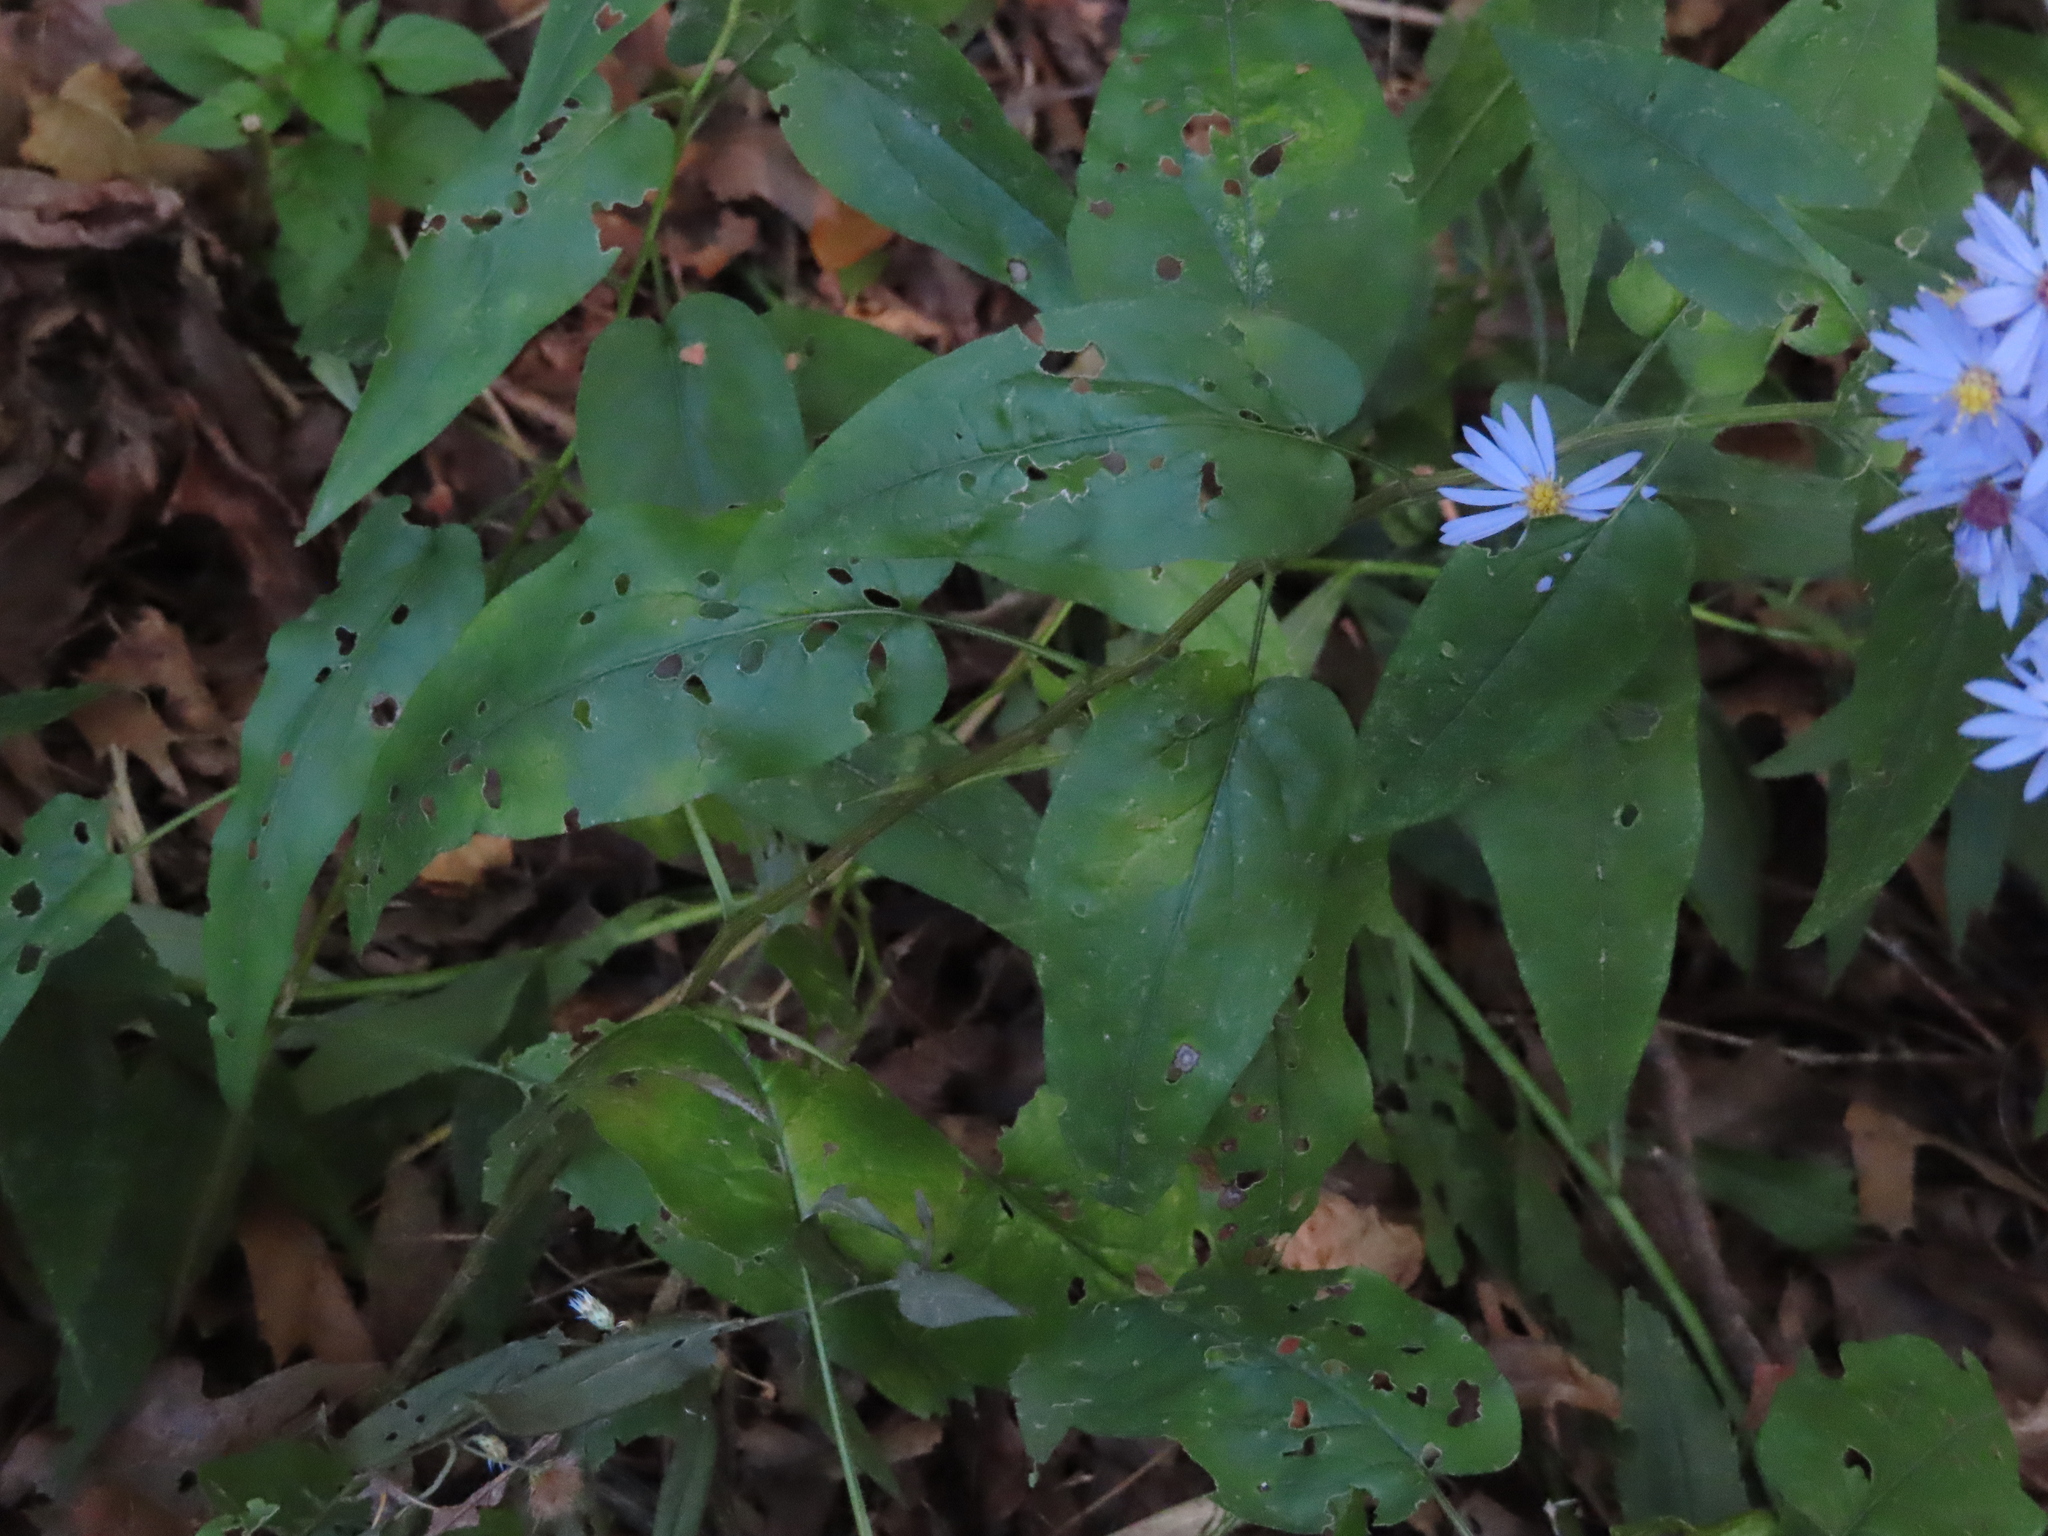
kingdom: Plantae
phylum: Tracheophyta
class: Magnoliopsida
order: Asterales
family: Asteraceae
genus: Symphyotrichum
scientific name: Symphyotrichum shortii
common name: Short's aster
